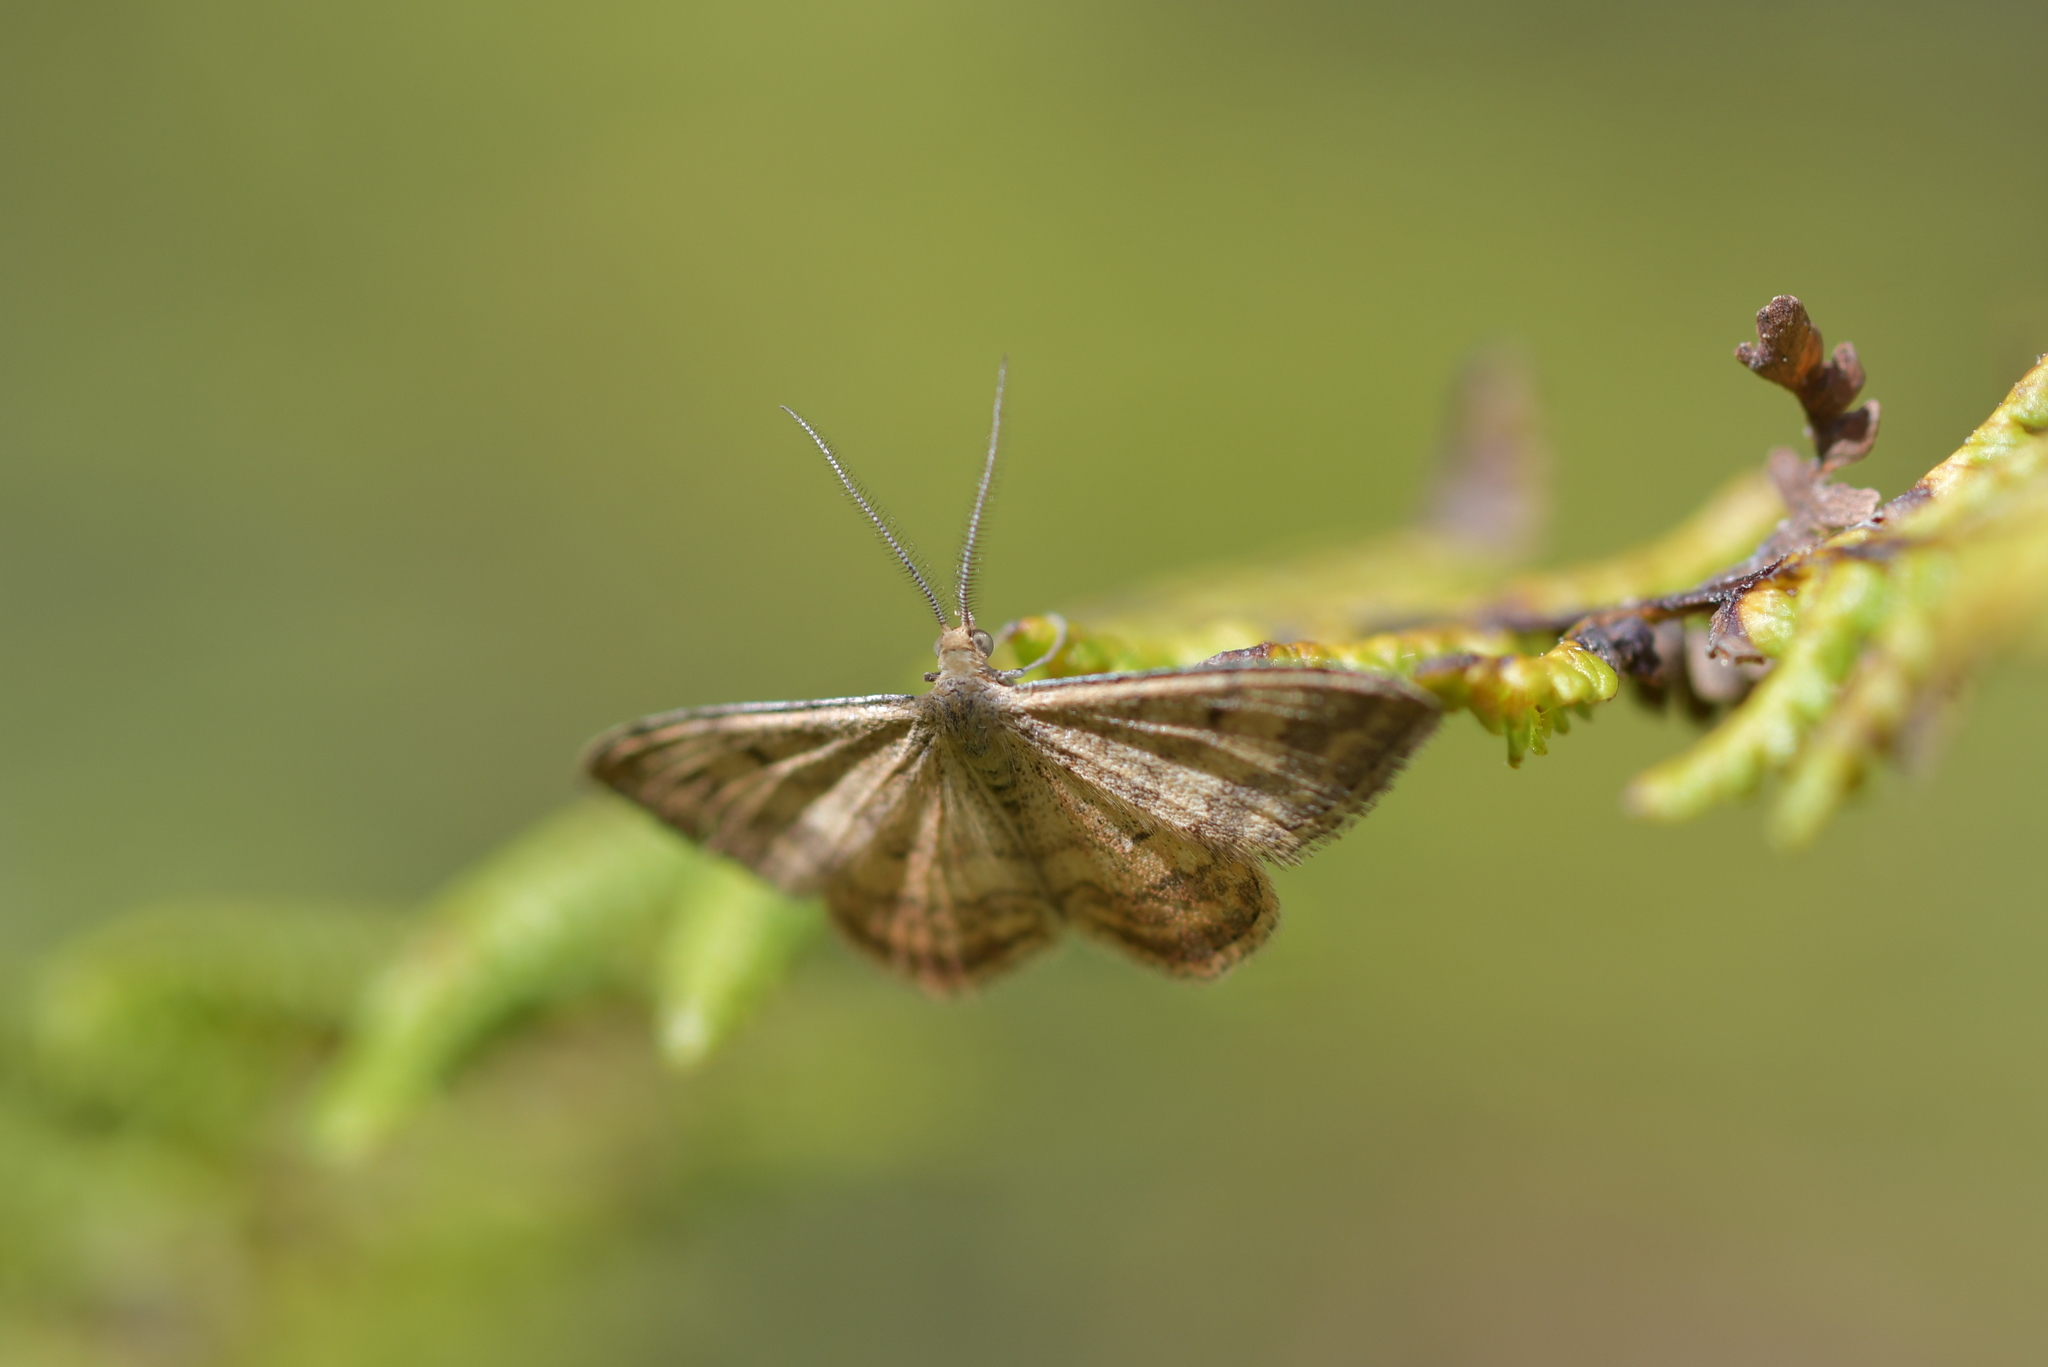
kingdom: Animalia
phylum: Arthropoda
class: Insecta
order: Lepidoptera
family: Geometridae
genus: Scopula
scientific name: Scopula rubraria
